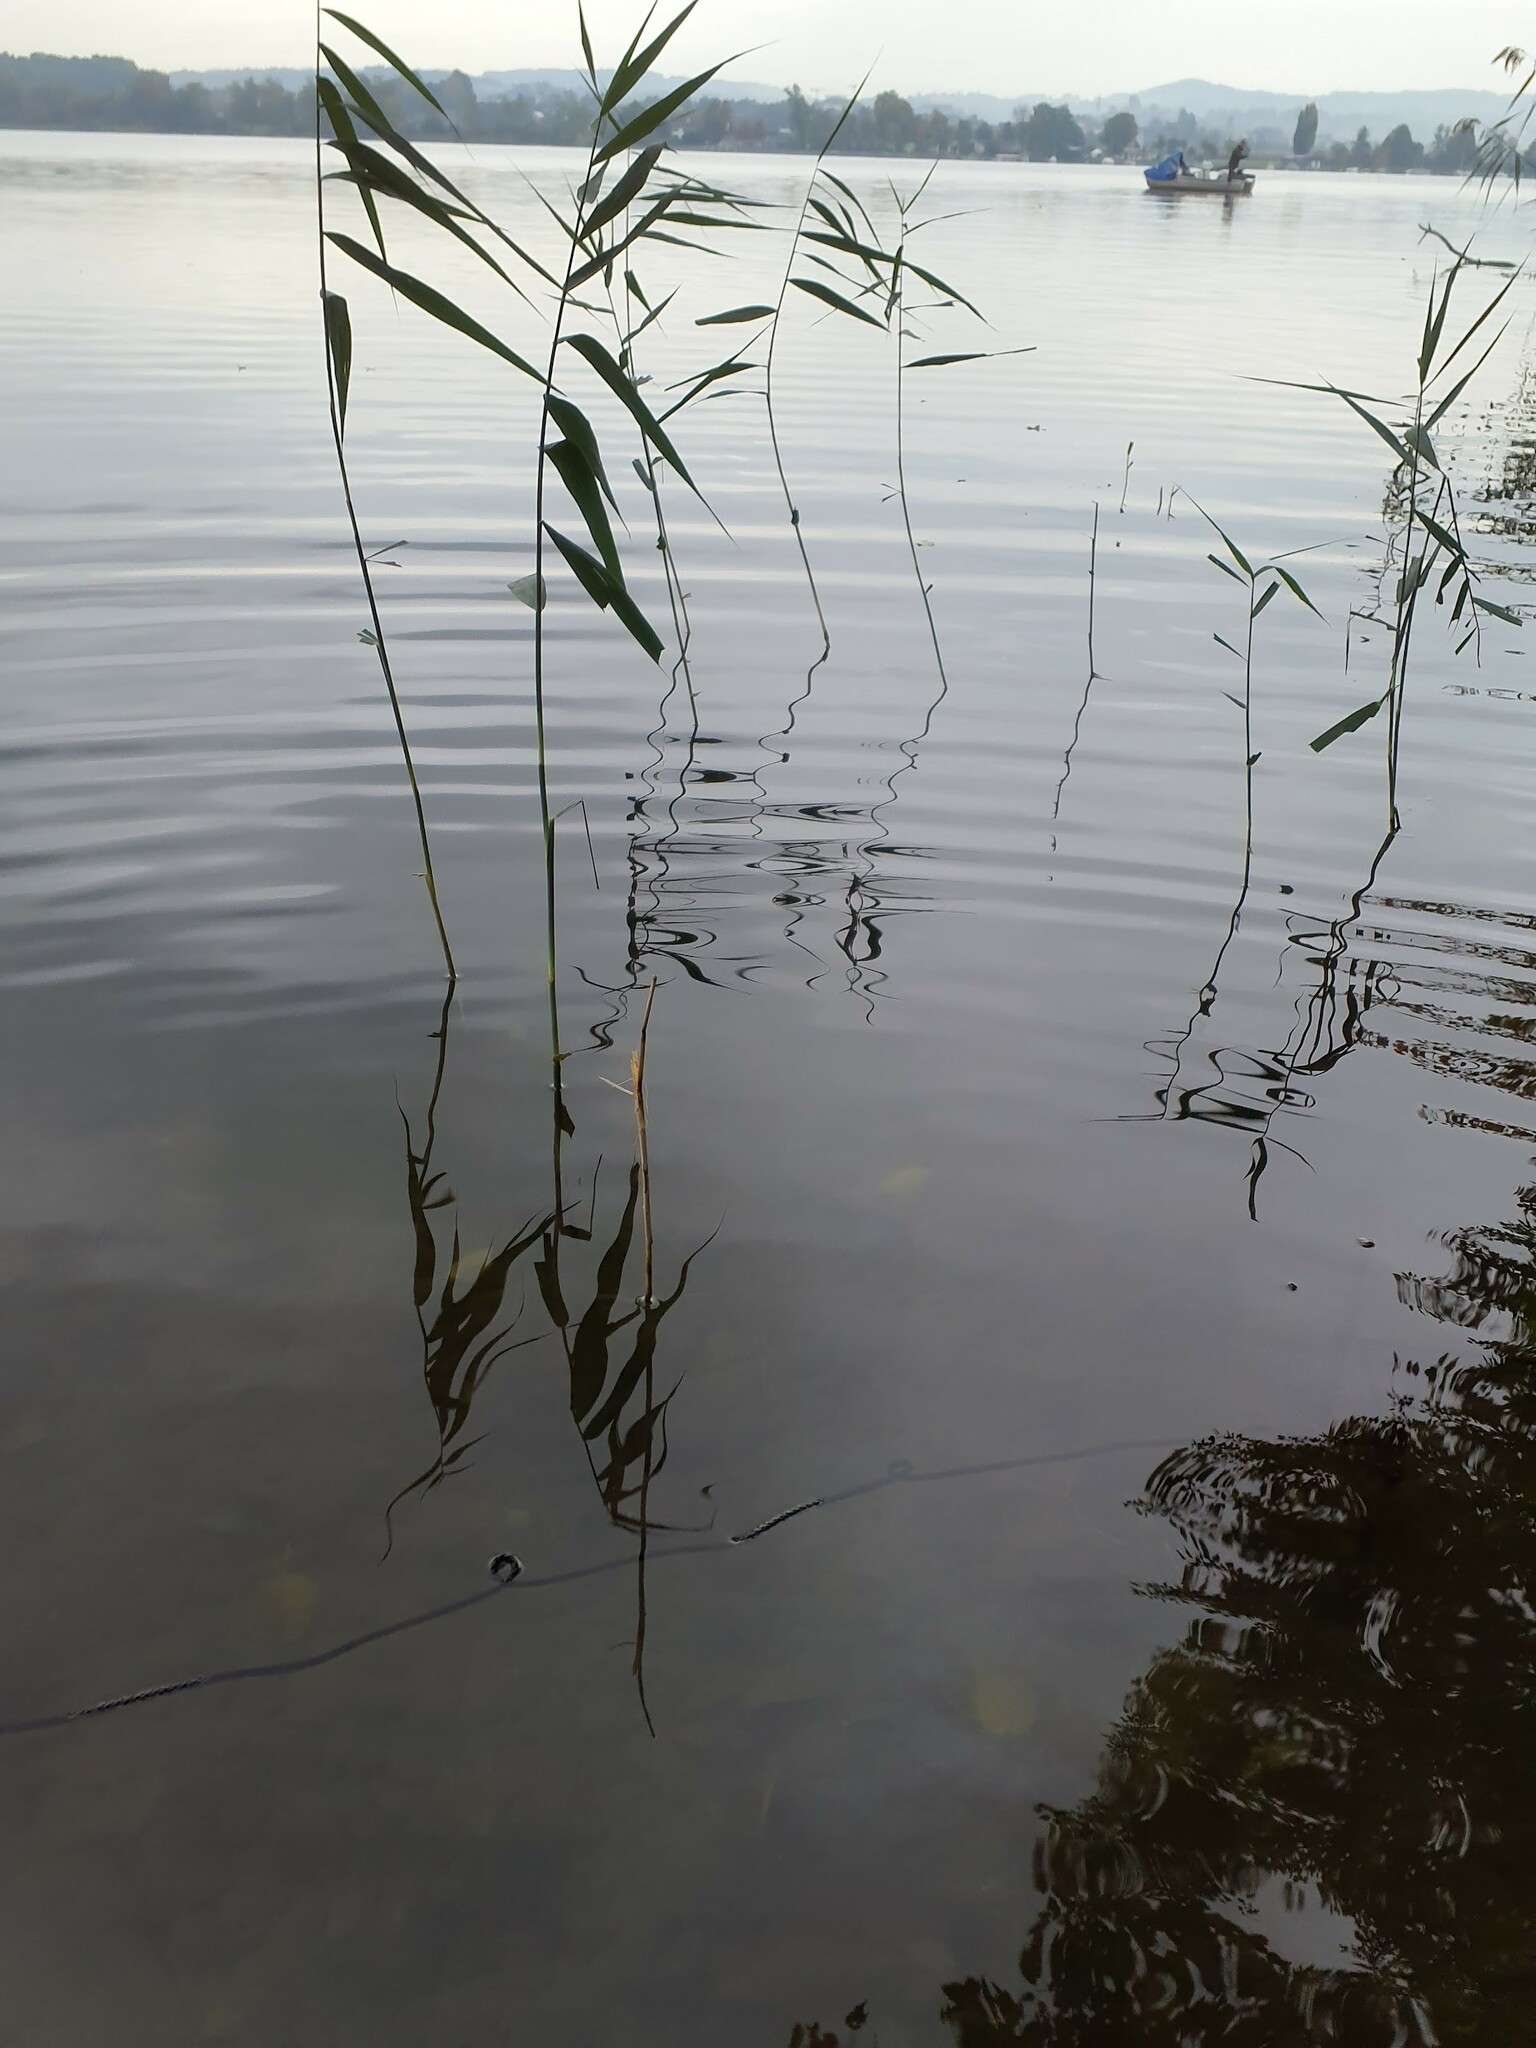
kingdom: Plantae
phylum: Tracheophyta
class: Liliopsida
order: Poales
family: Poaceae
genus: Phragmites
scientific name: Phragmites australis
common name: Common reed
